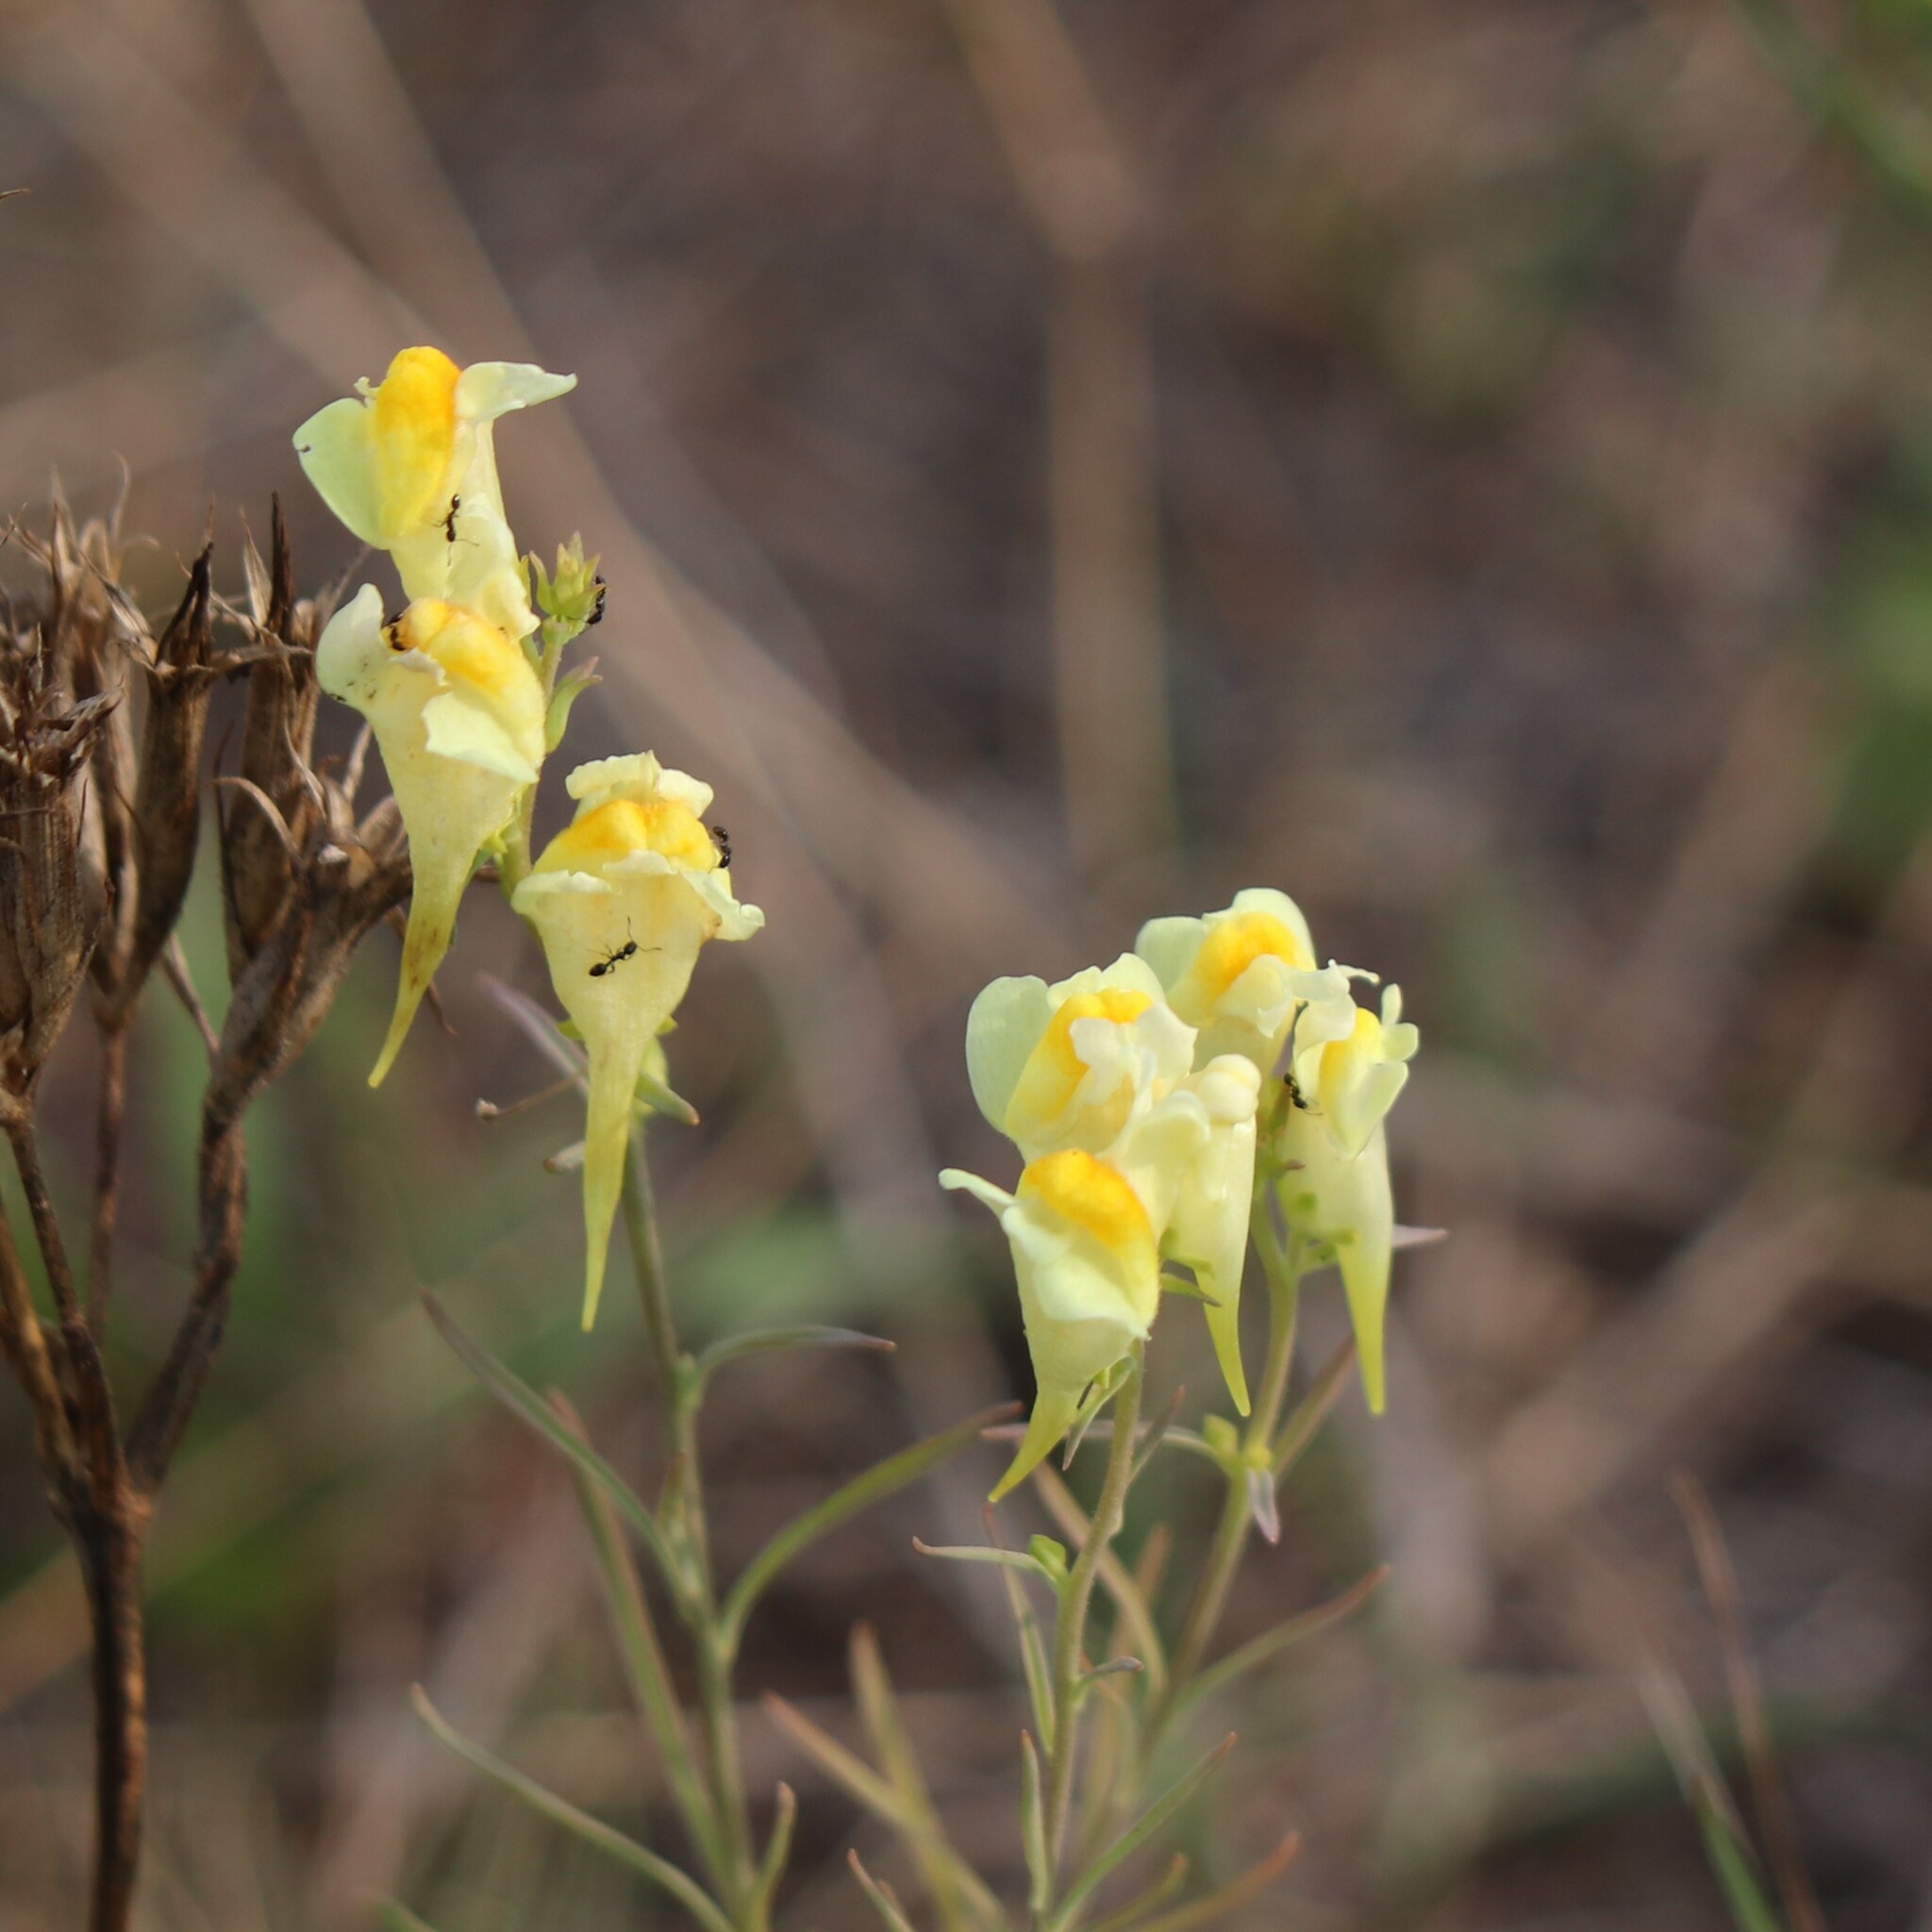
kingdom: Plantae
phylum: Tracheophyta
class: Magnoliopsida
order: Lamiales
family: Plantaginaceae
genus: Linaria
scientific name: Linaria vulgaris
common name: Butter and eggs
